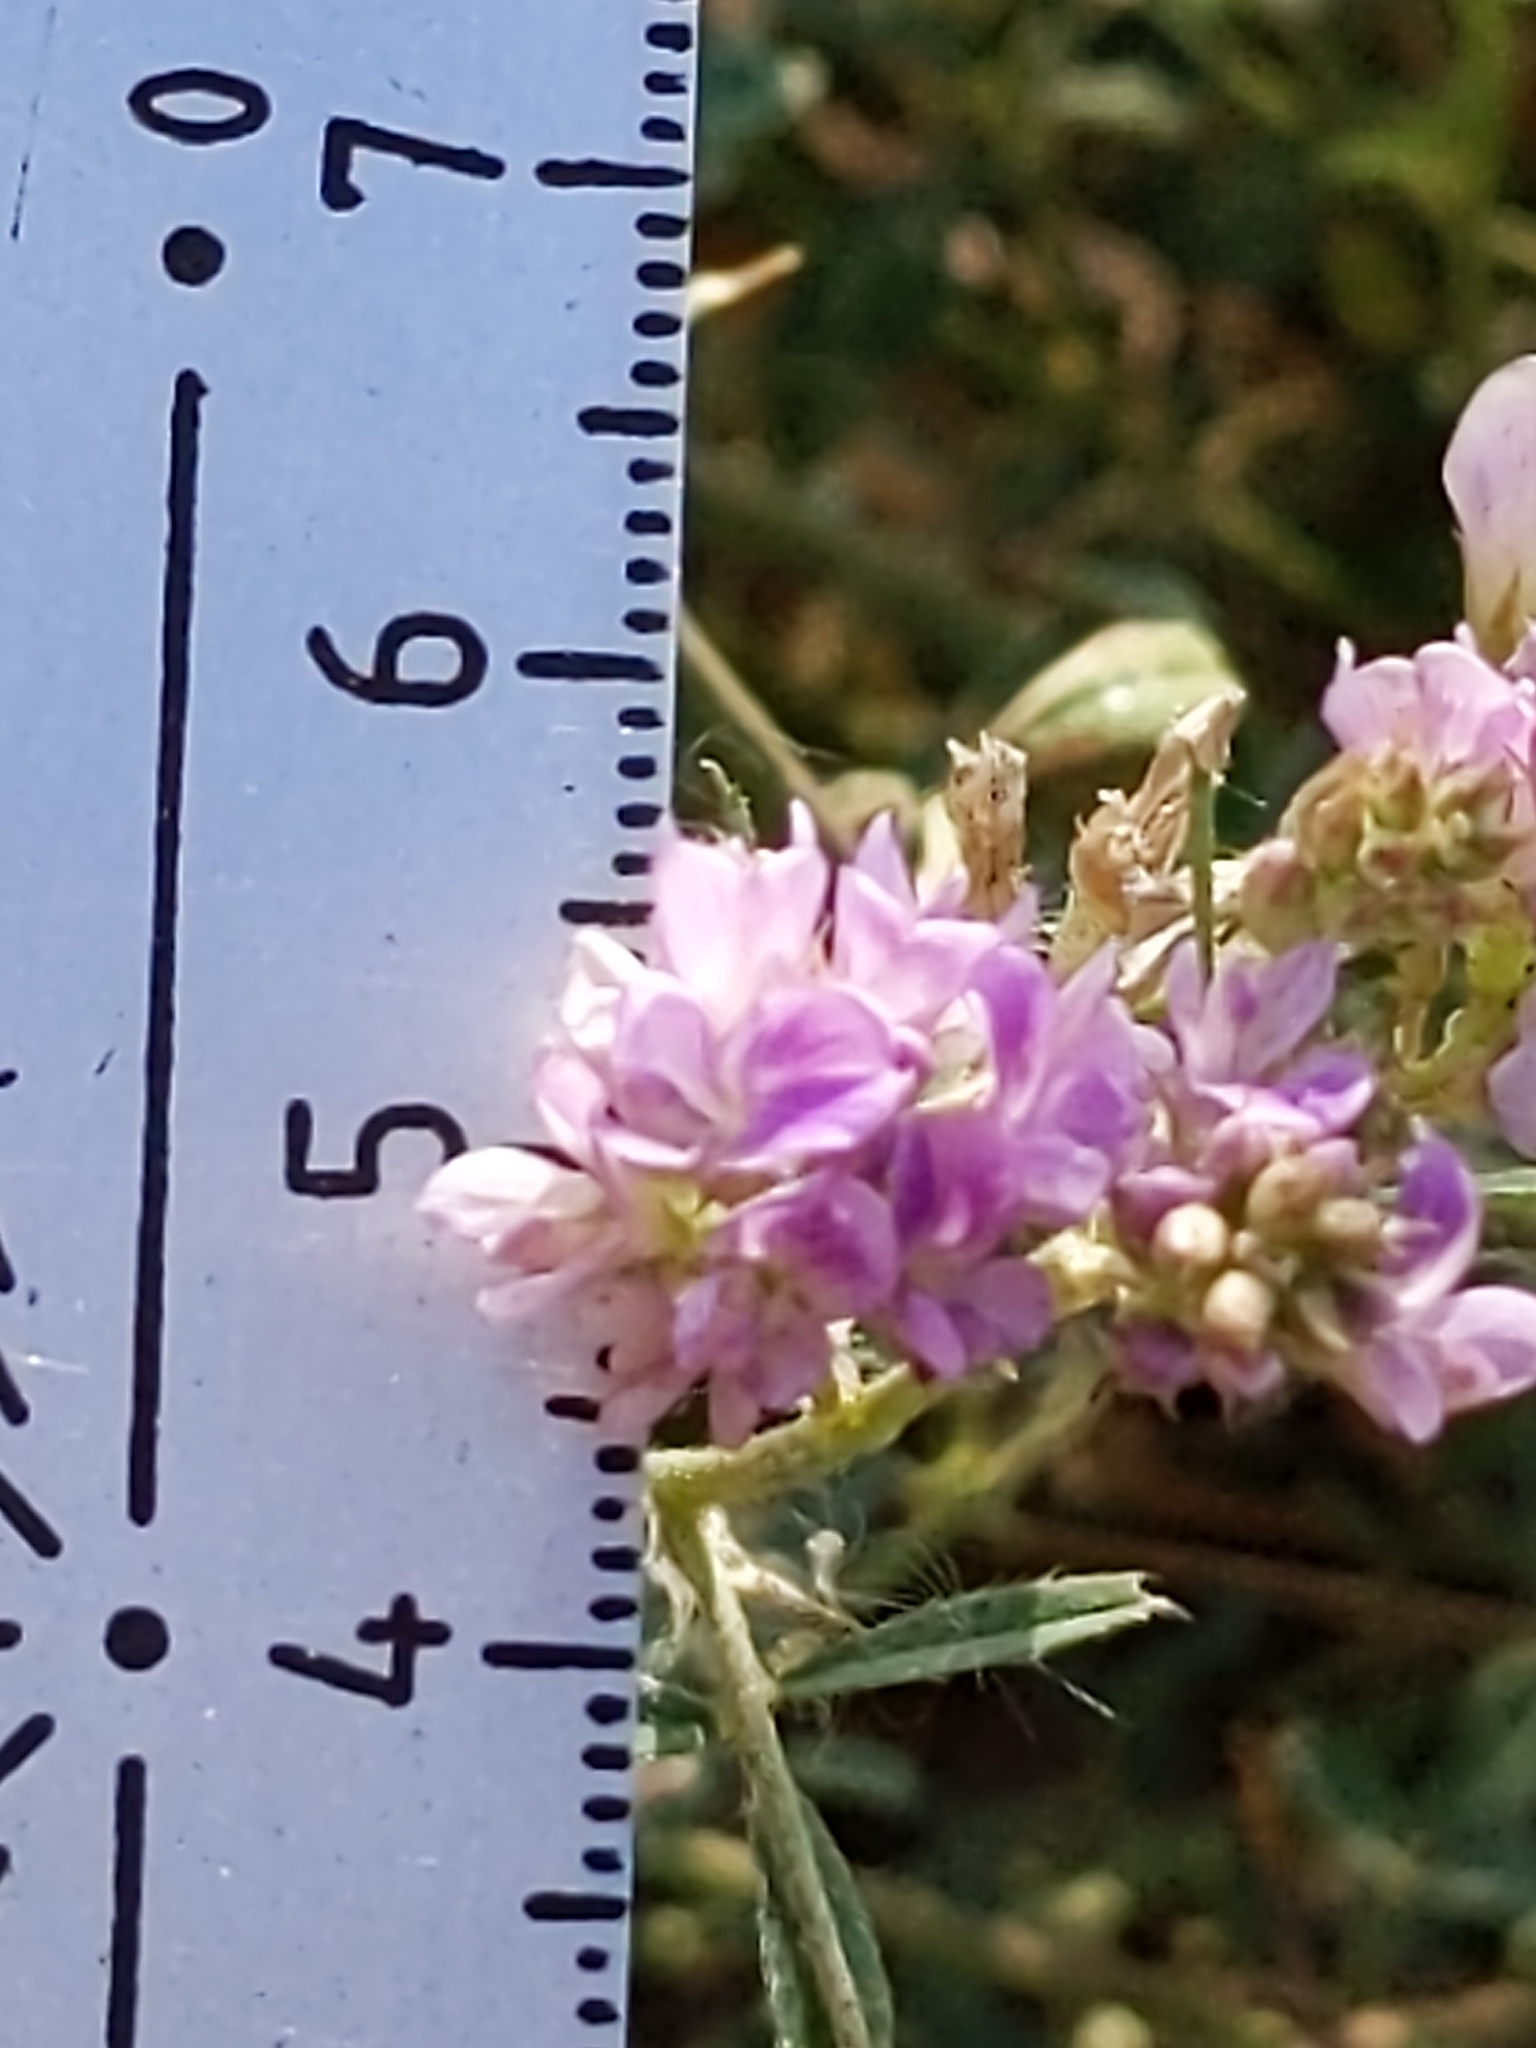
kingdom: Plantae
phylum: Tracheophyta
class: Magnoliopsida
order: Fabales
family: Fabaceae
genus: Medicago
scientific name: Medicago sativa
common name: Alfalfa
